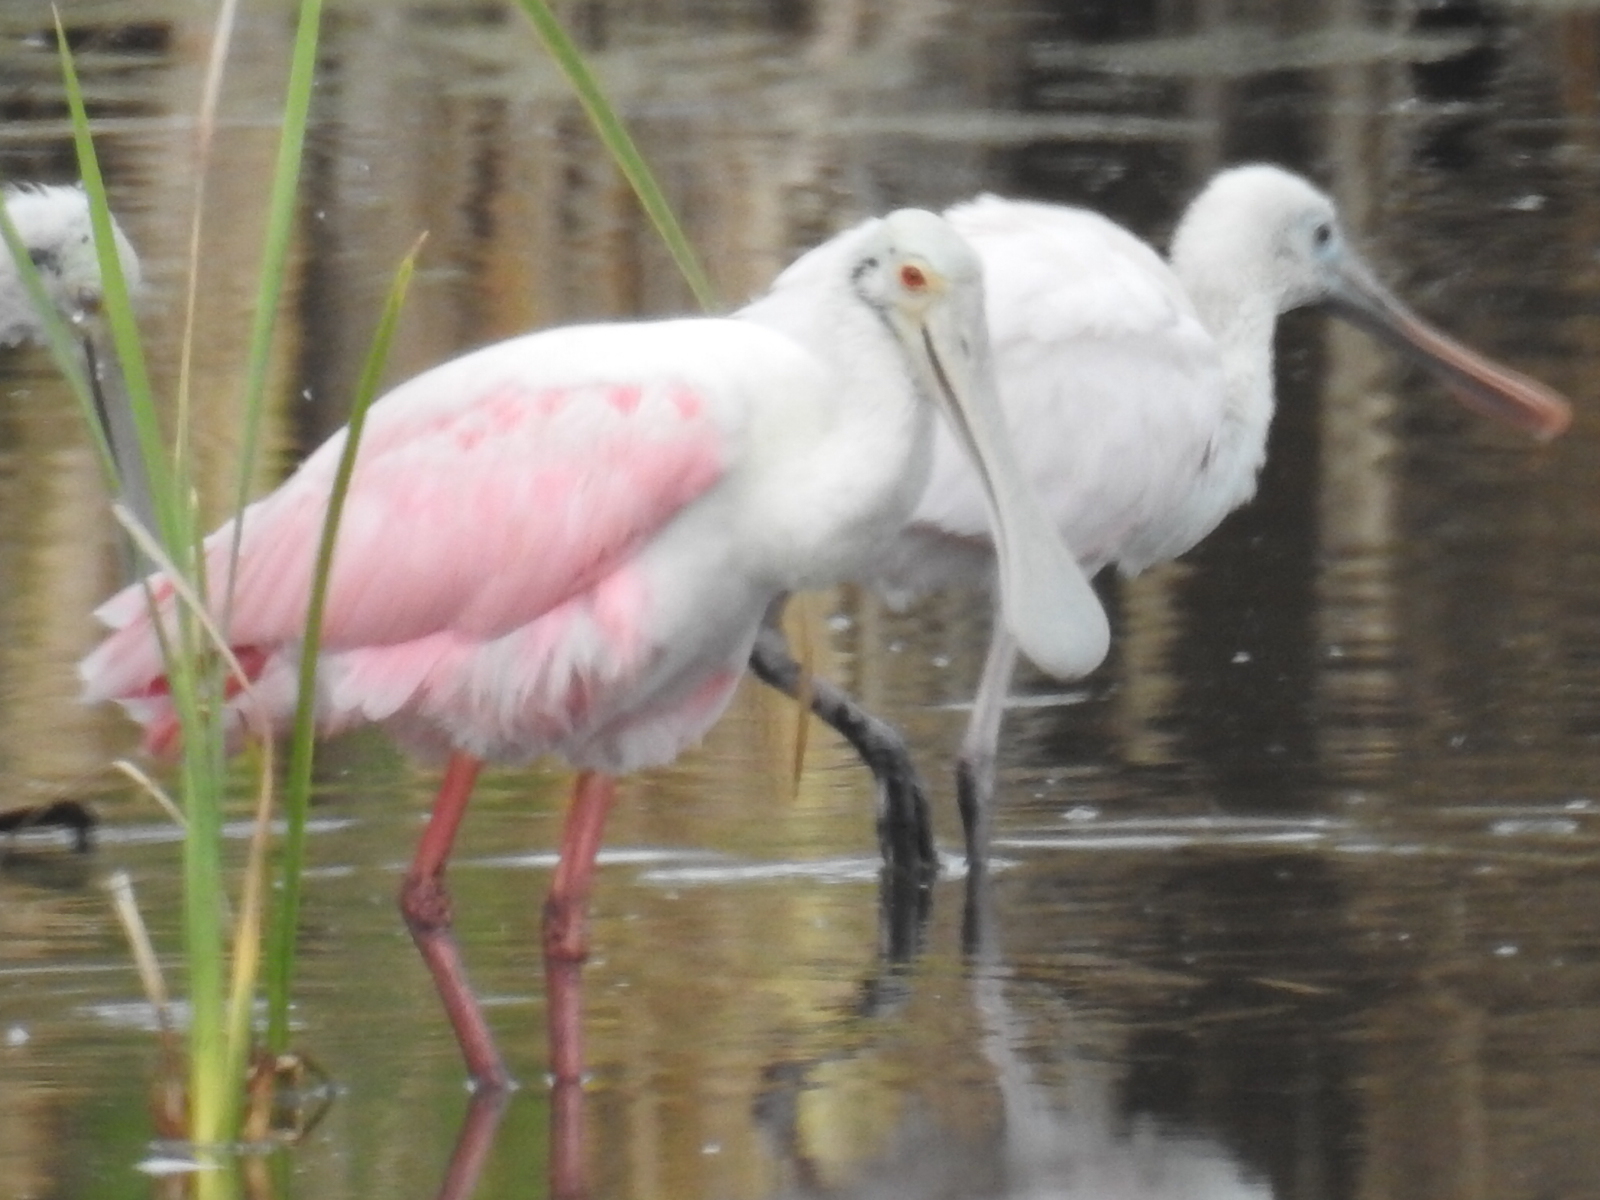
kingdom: Animalia
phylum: Chordata
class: Aves
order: Pelecaniformes
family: Threskiornithidae
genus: Platalea
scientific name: Platalea ajaja
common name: Roseate spoonbill
